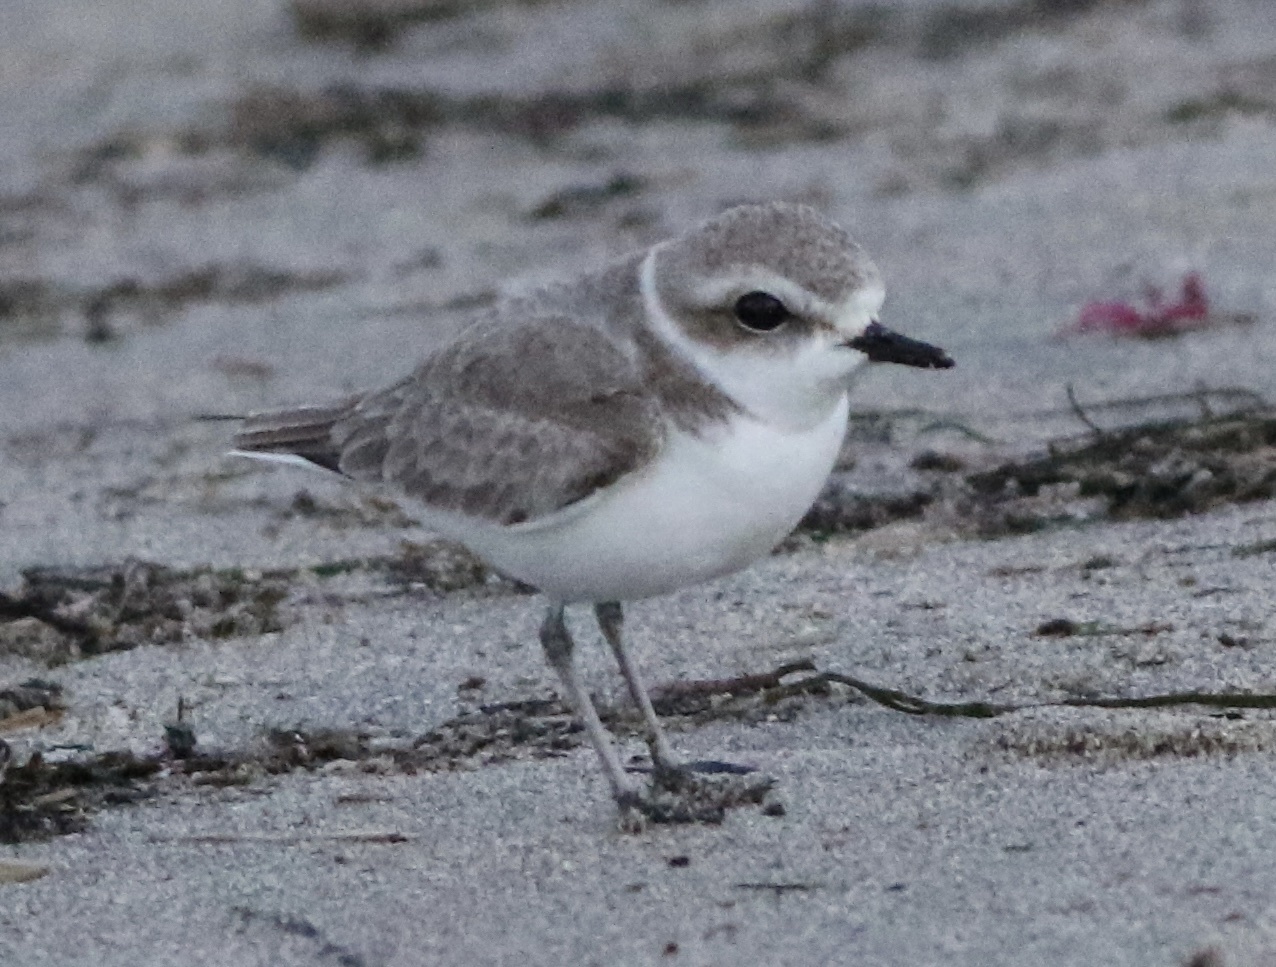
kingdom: Animalia
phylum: Chordata
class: Aves
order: Charadriiformes
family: Charadriidae
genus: Anarhynchus
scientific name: Anarhynchus
